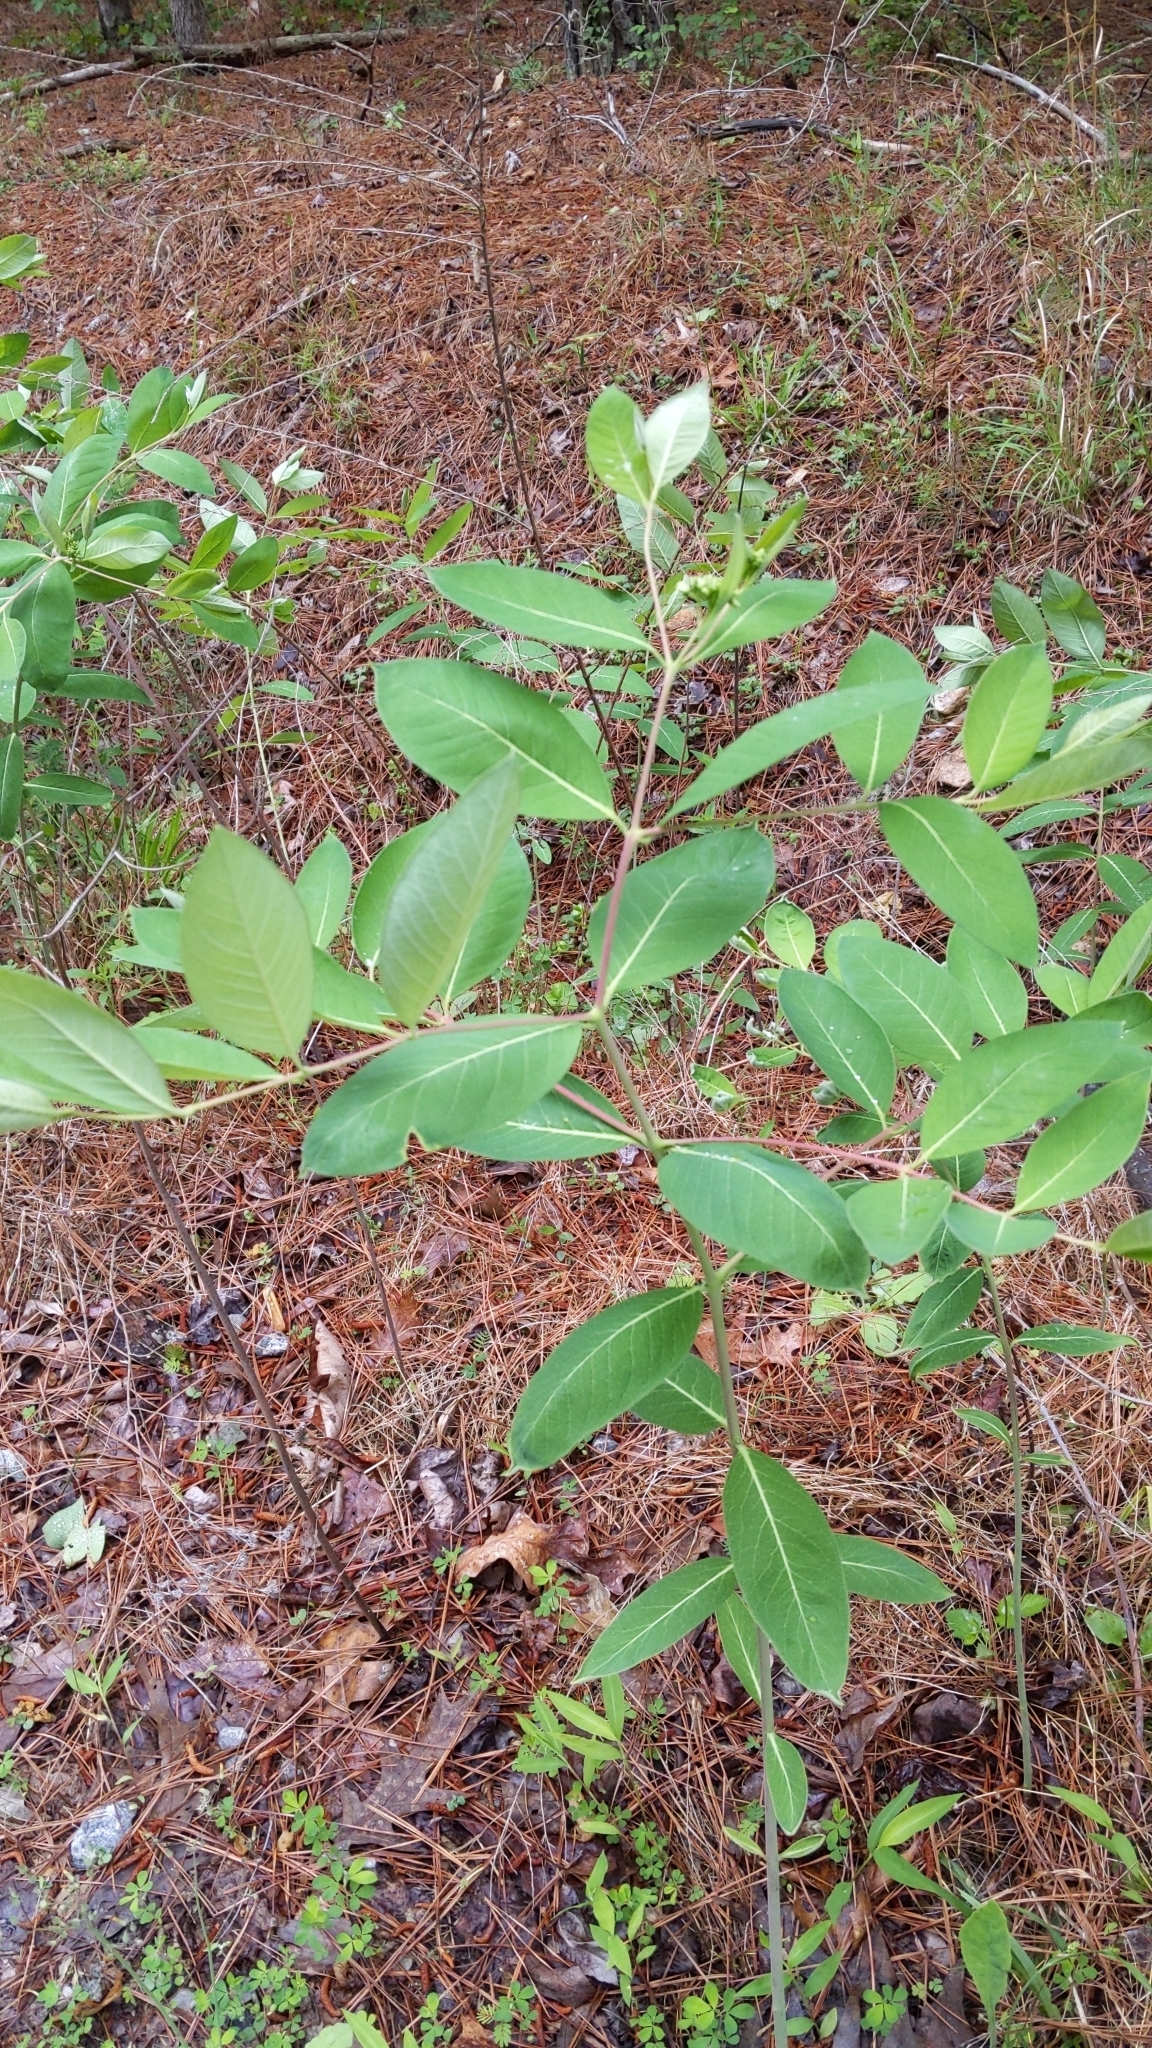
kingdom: Plantae
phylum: Tracheophyta
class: Magnoliopsida
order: Gentianales
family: Apocynaceae
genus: Apocynum
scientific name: Apocynum cannabinum
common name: Hemp dogbane
